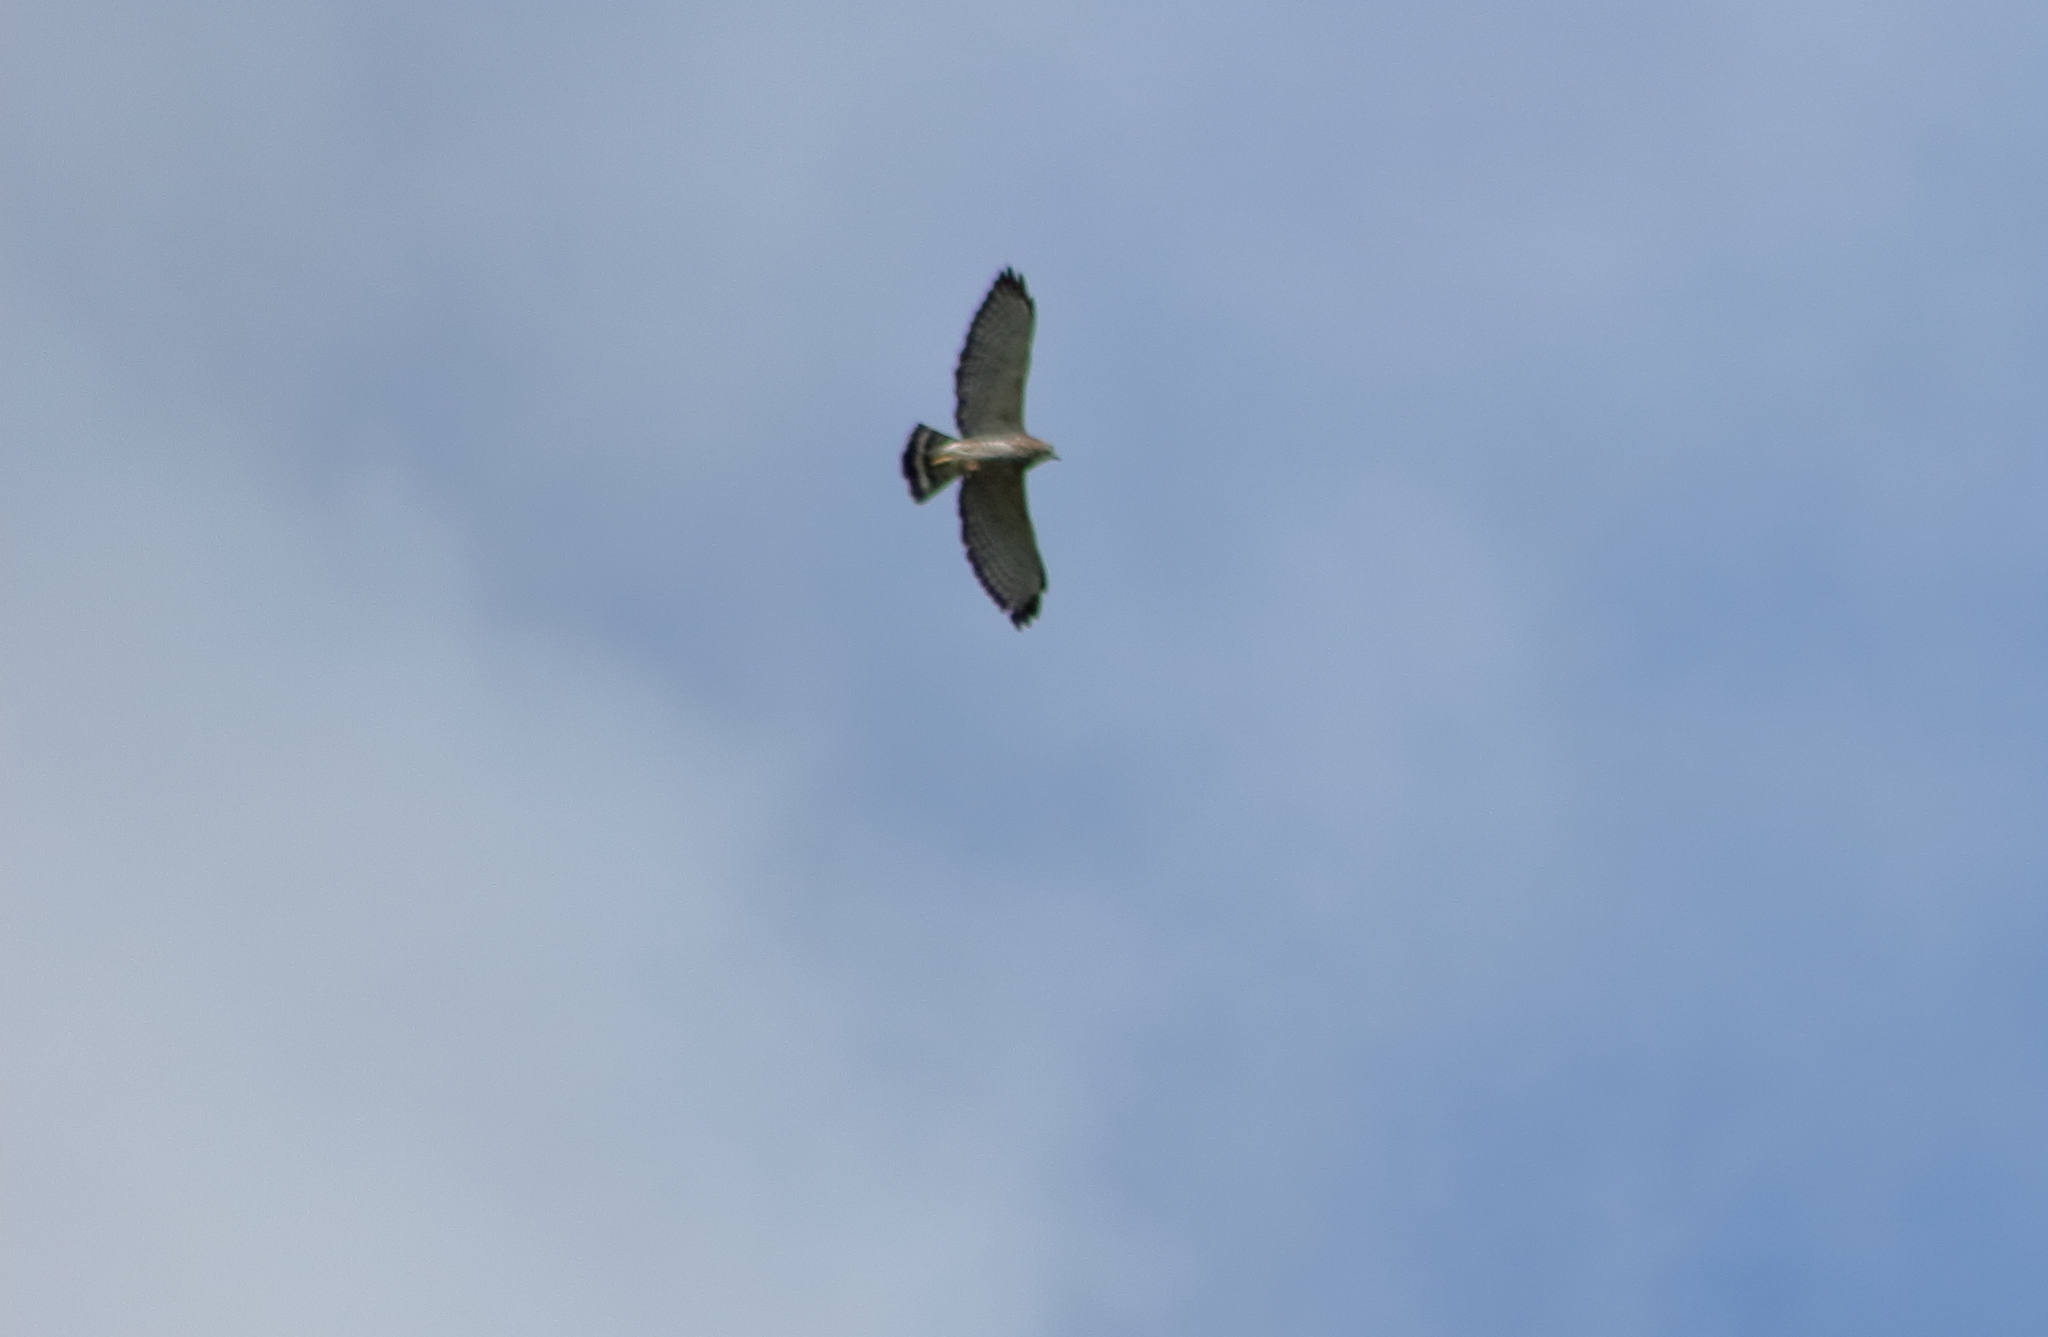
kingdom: Animalia
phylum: Chordata
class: Aves
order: Accipitriformes
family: Accipitridae
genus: Buteo
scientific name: Buteo platypterus
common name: Broad-winged hawk
